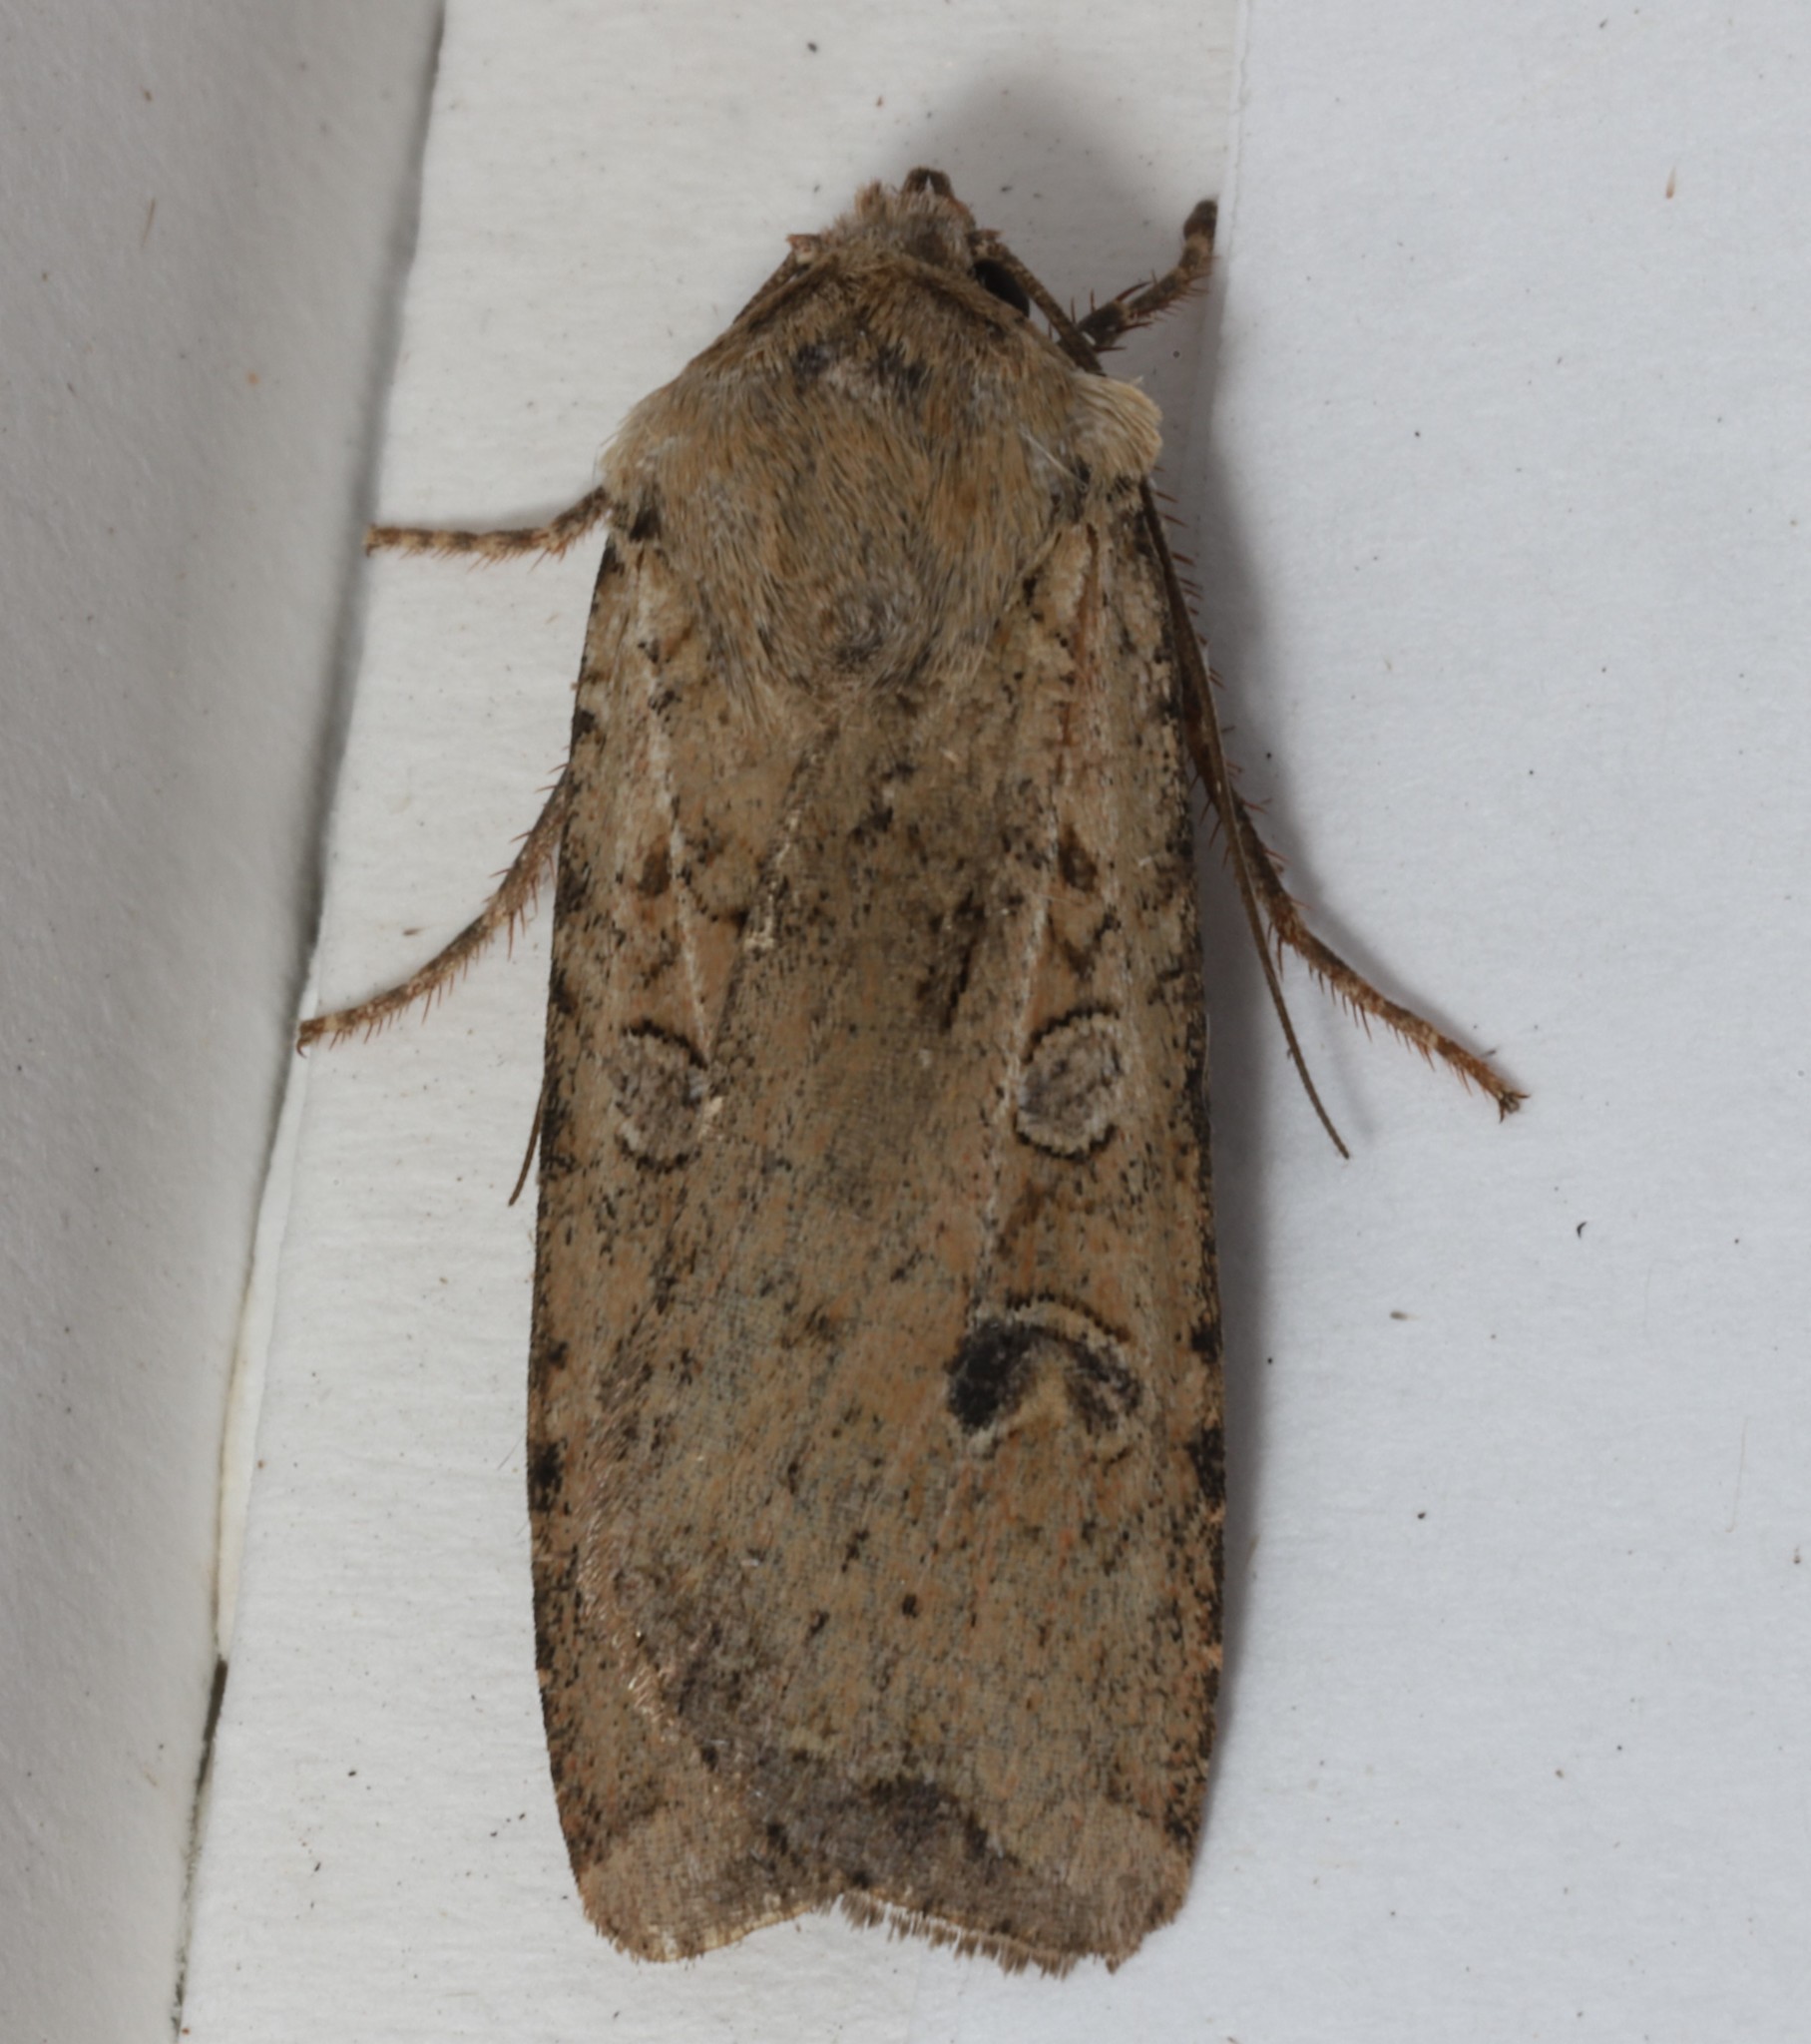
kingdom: Animalia
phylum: Arthropoda
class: Insecta
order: Lepidoptera
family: Noctuidae
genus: Peridroma
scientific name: Peridroma saucia
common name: Pearly underwing
